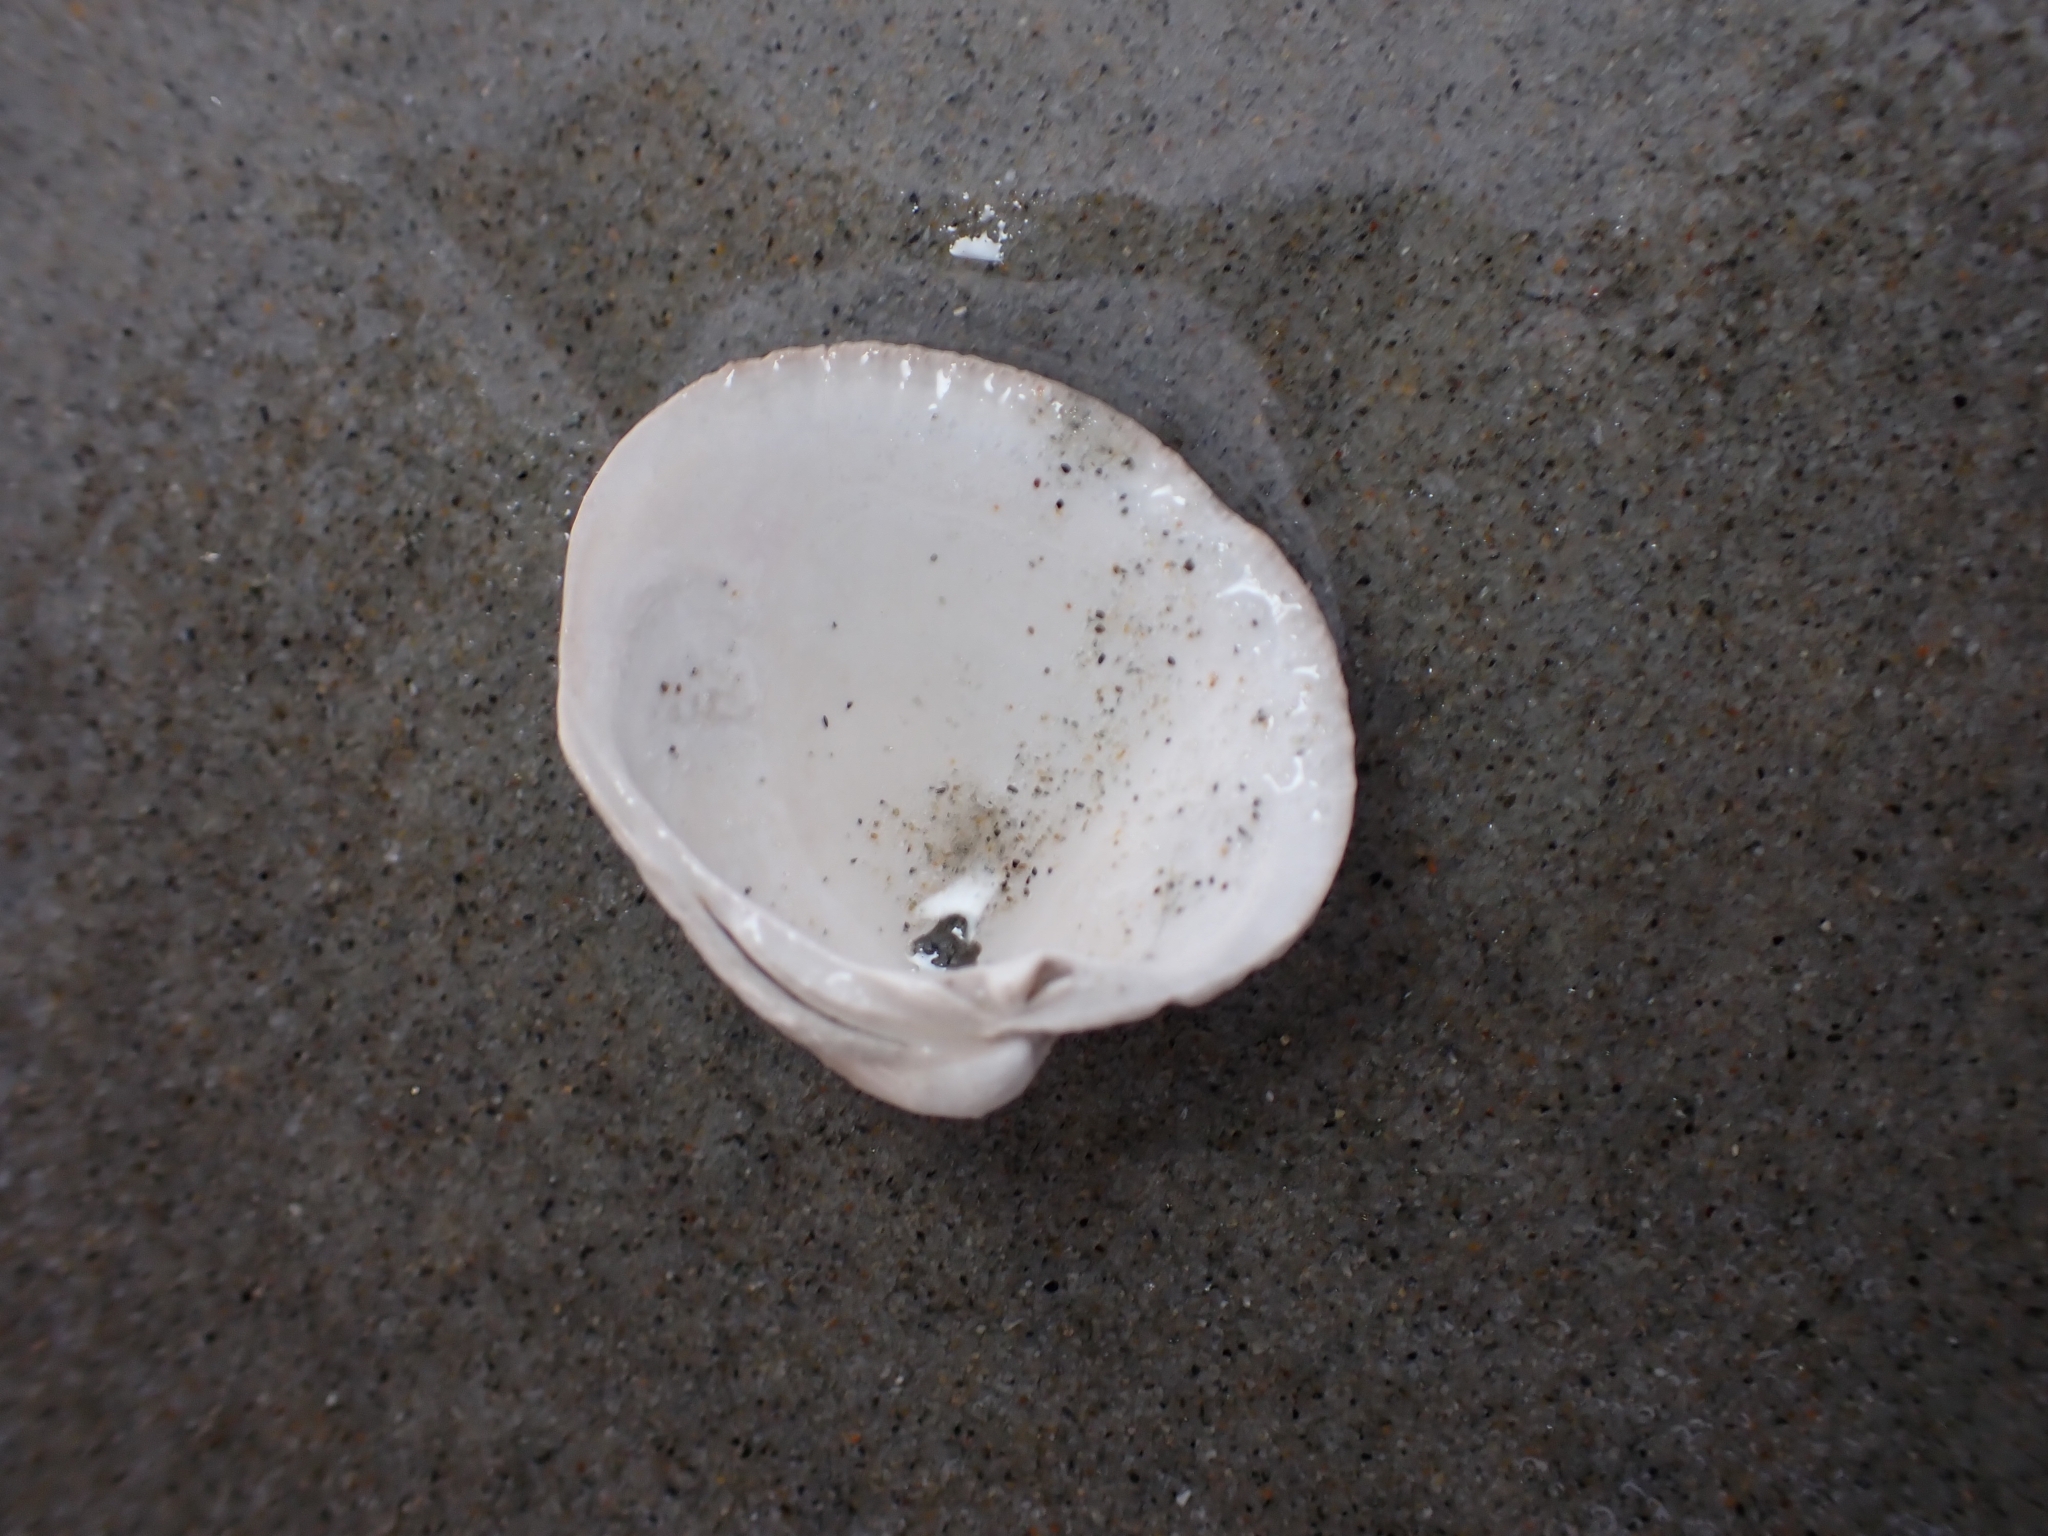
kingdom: Animalia
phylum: Mollusca
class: Bivalvia
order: Venerida
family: Veneridae
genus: Austrovenus
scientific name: Austrovenus stutchburyi
